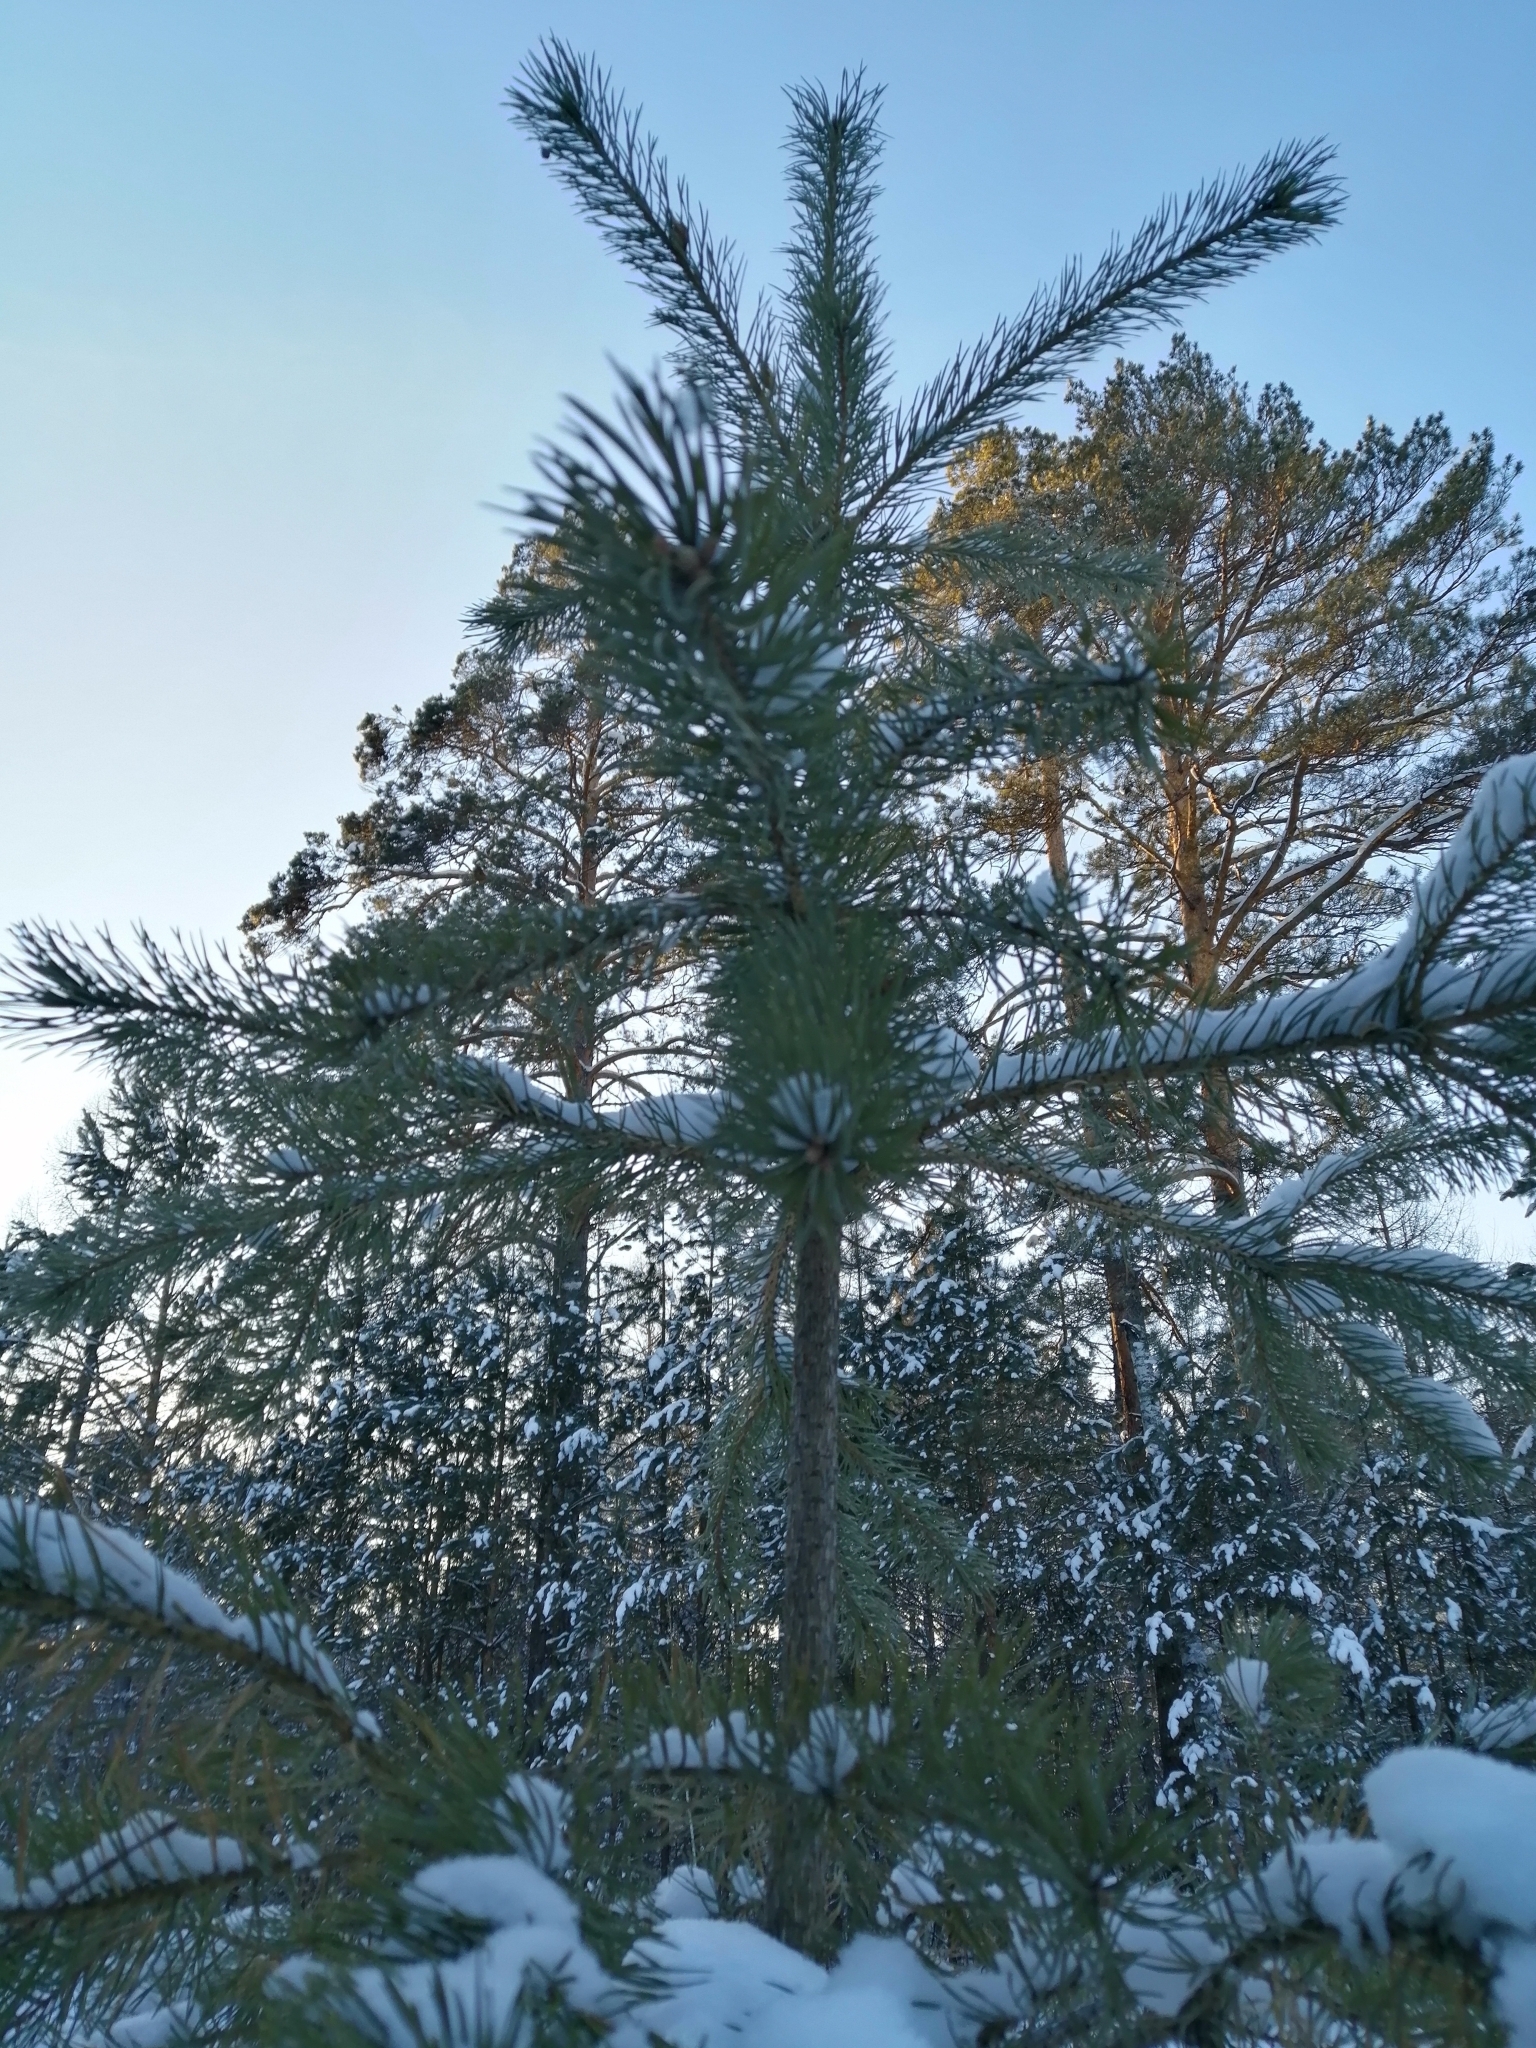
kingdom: Plantae
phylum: Tracheophyta
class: Pinopsida
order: Pinales
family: Pinaceae
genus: Pinus
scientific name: Pinus sylvestris
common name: Scots pine
